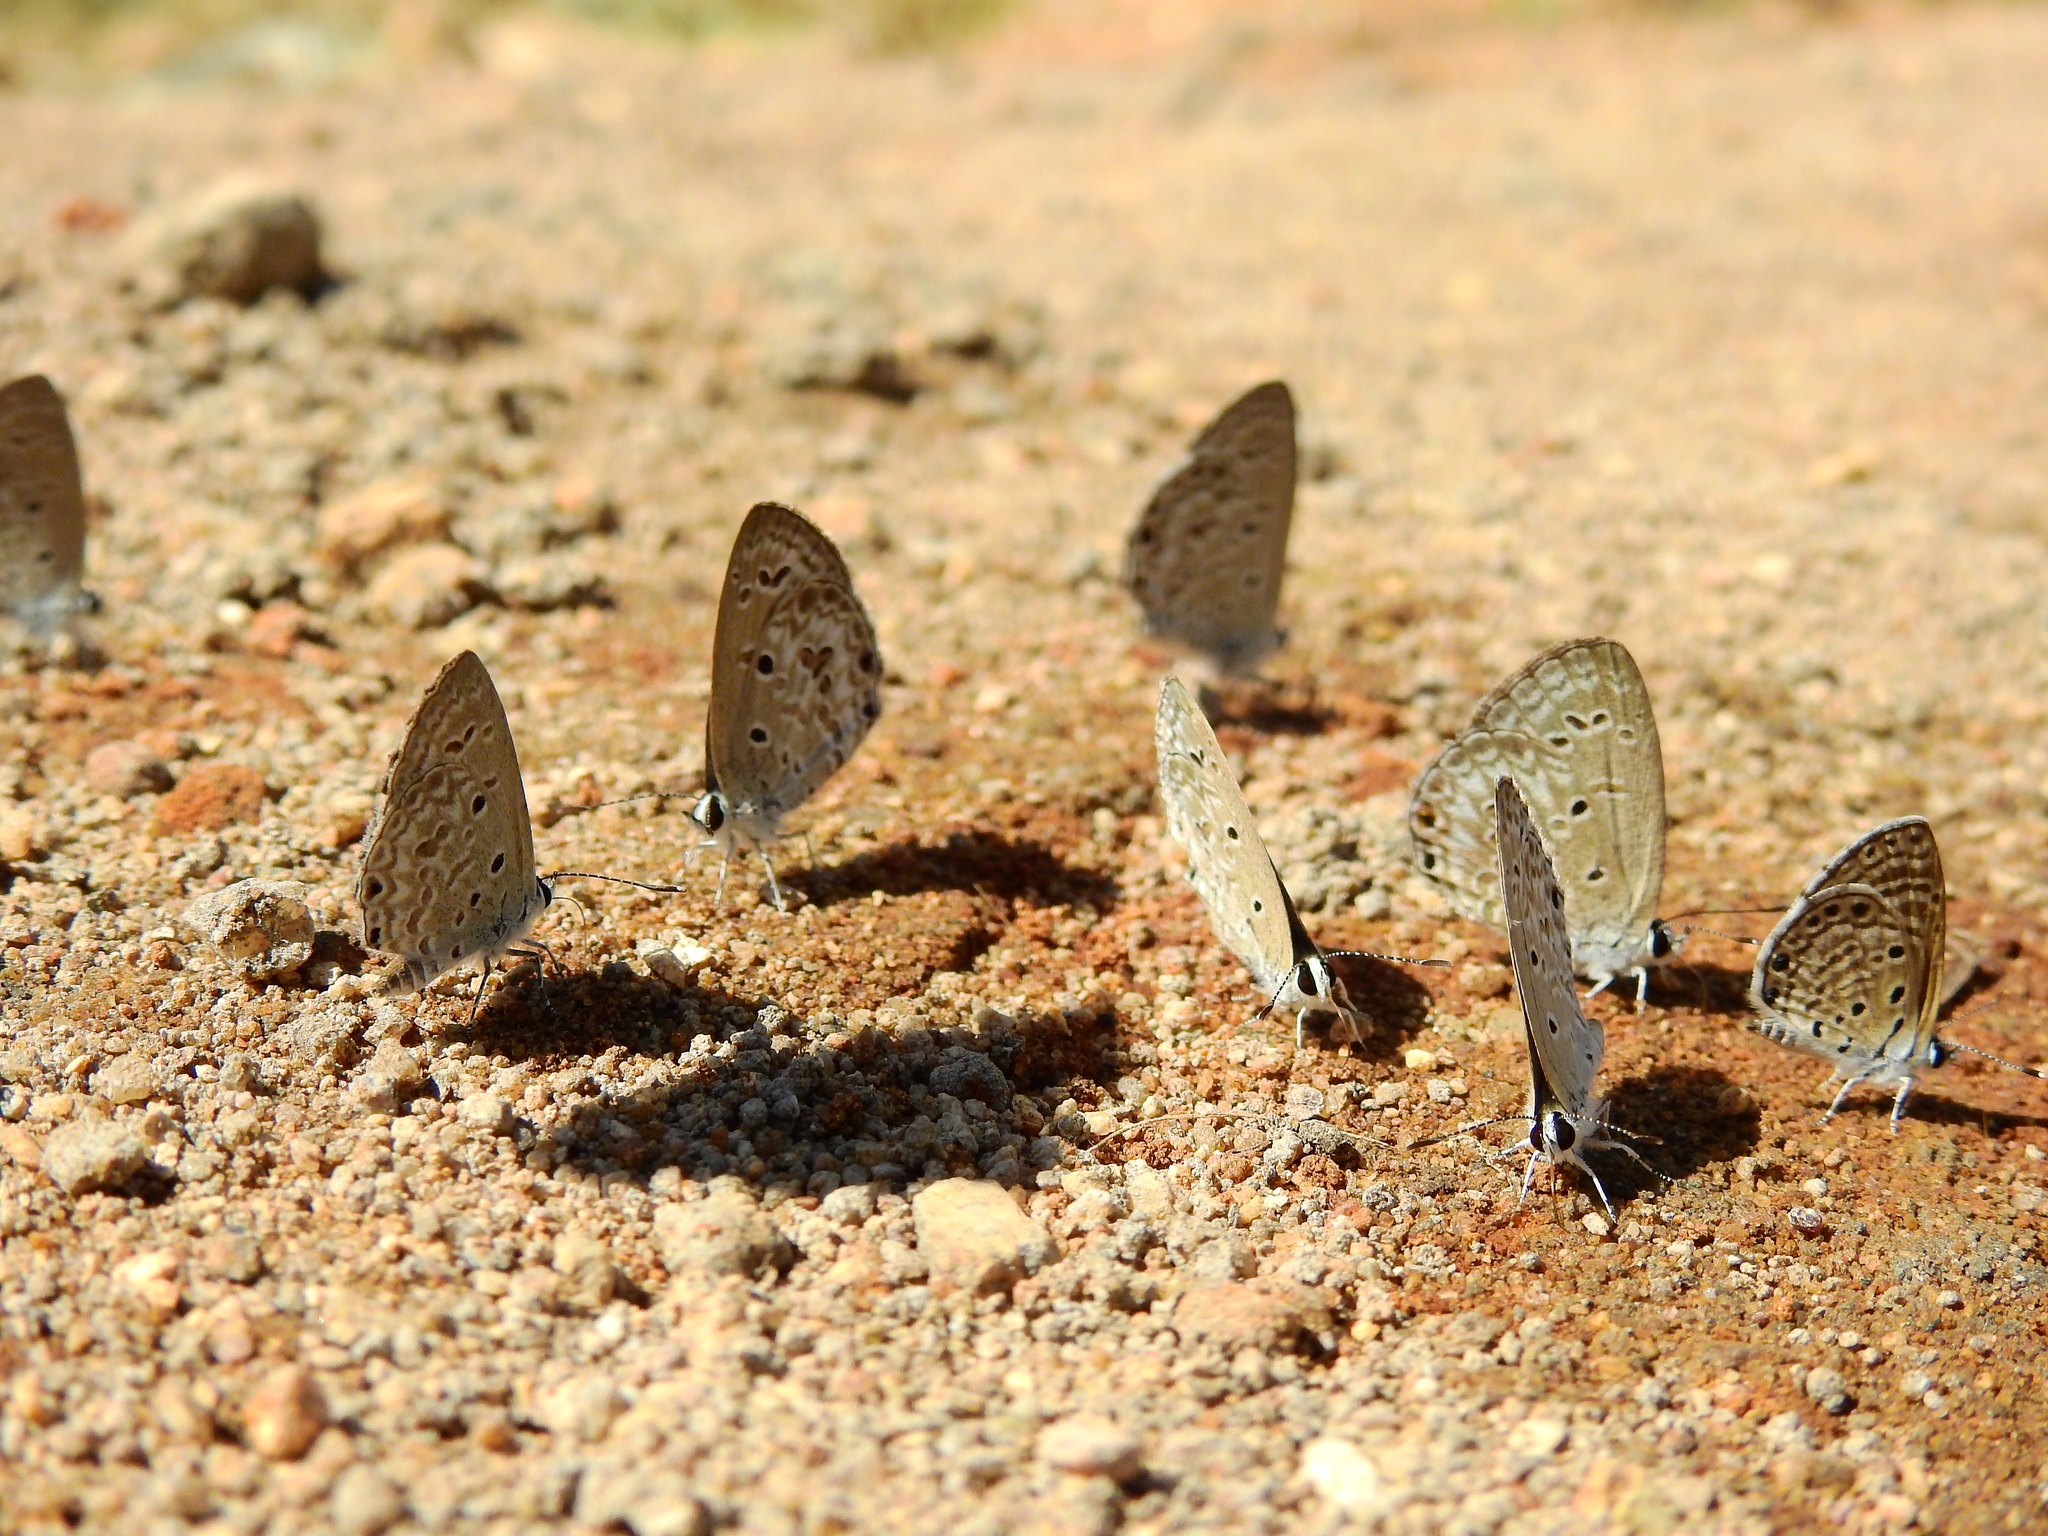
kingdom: Animalia
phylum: Arthropoda
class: Insecta
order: Lepidoptera
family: Lycaenidae
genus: Chilades
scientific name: Chilades laius
